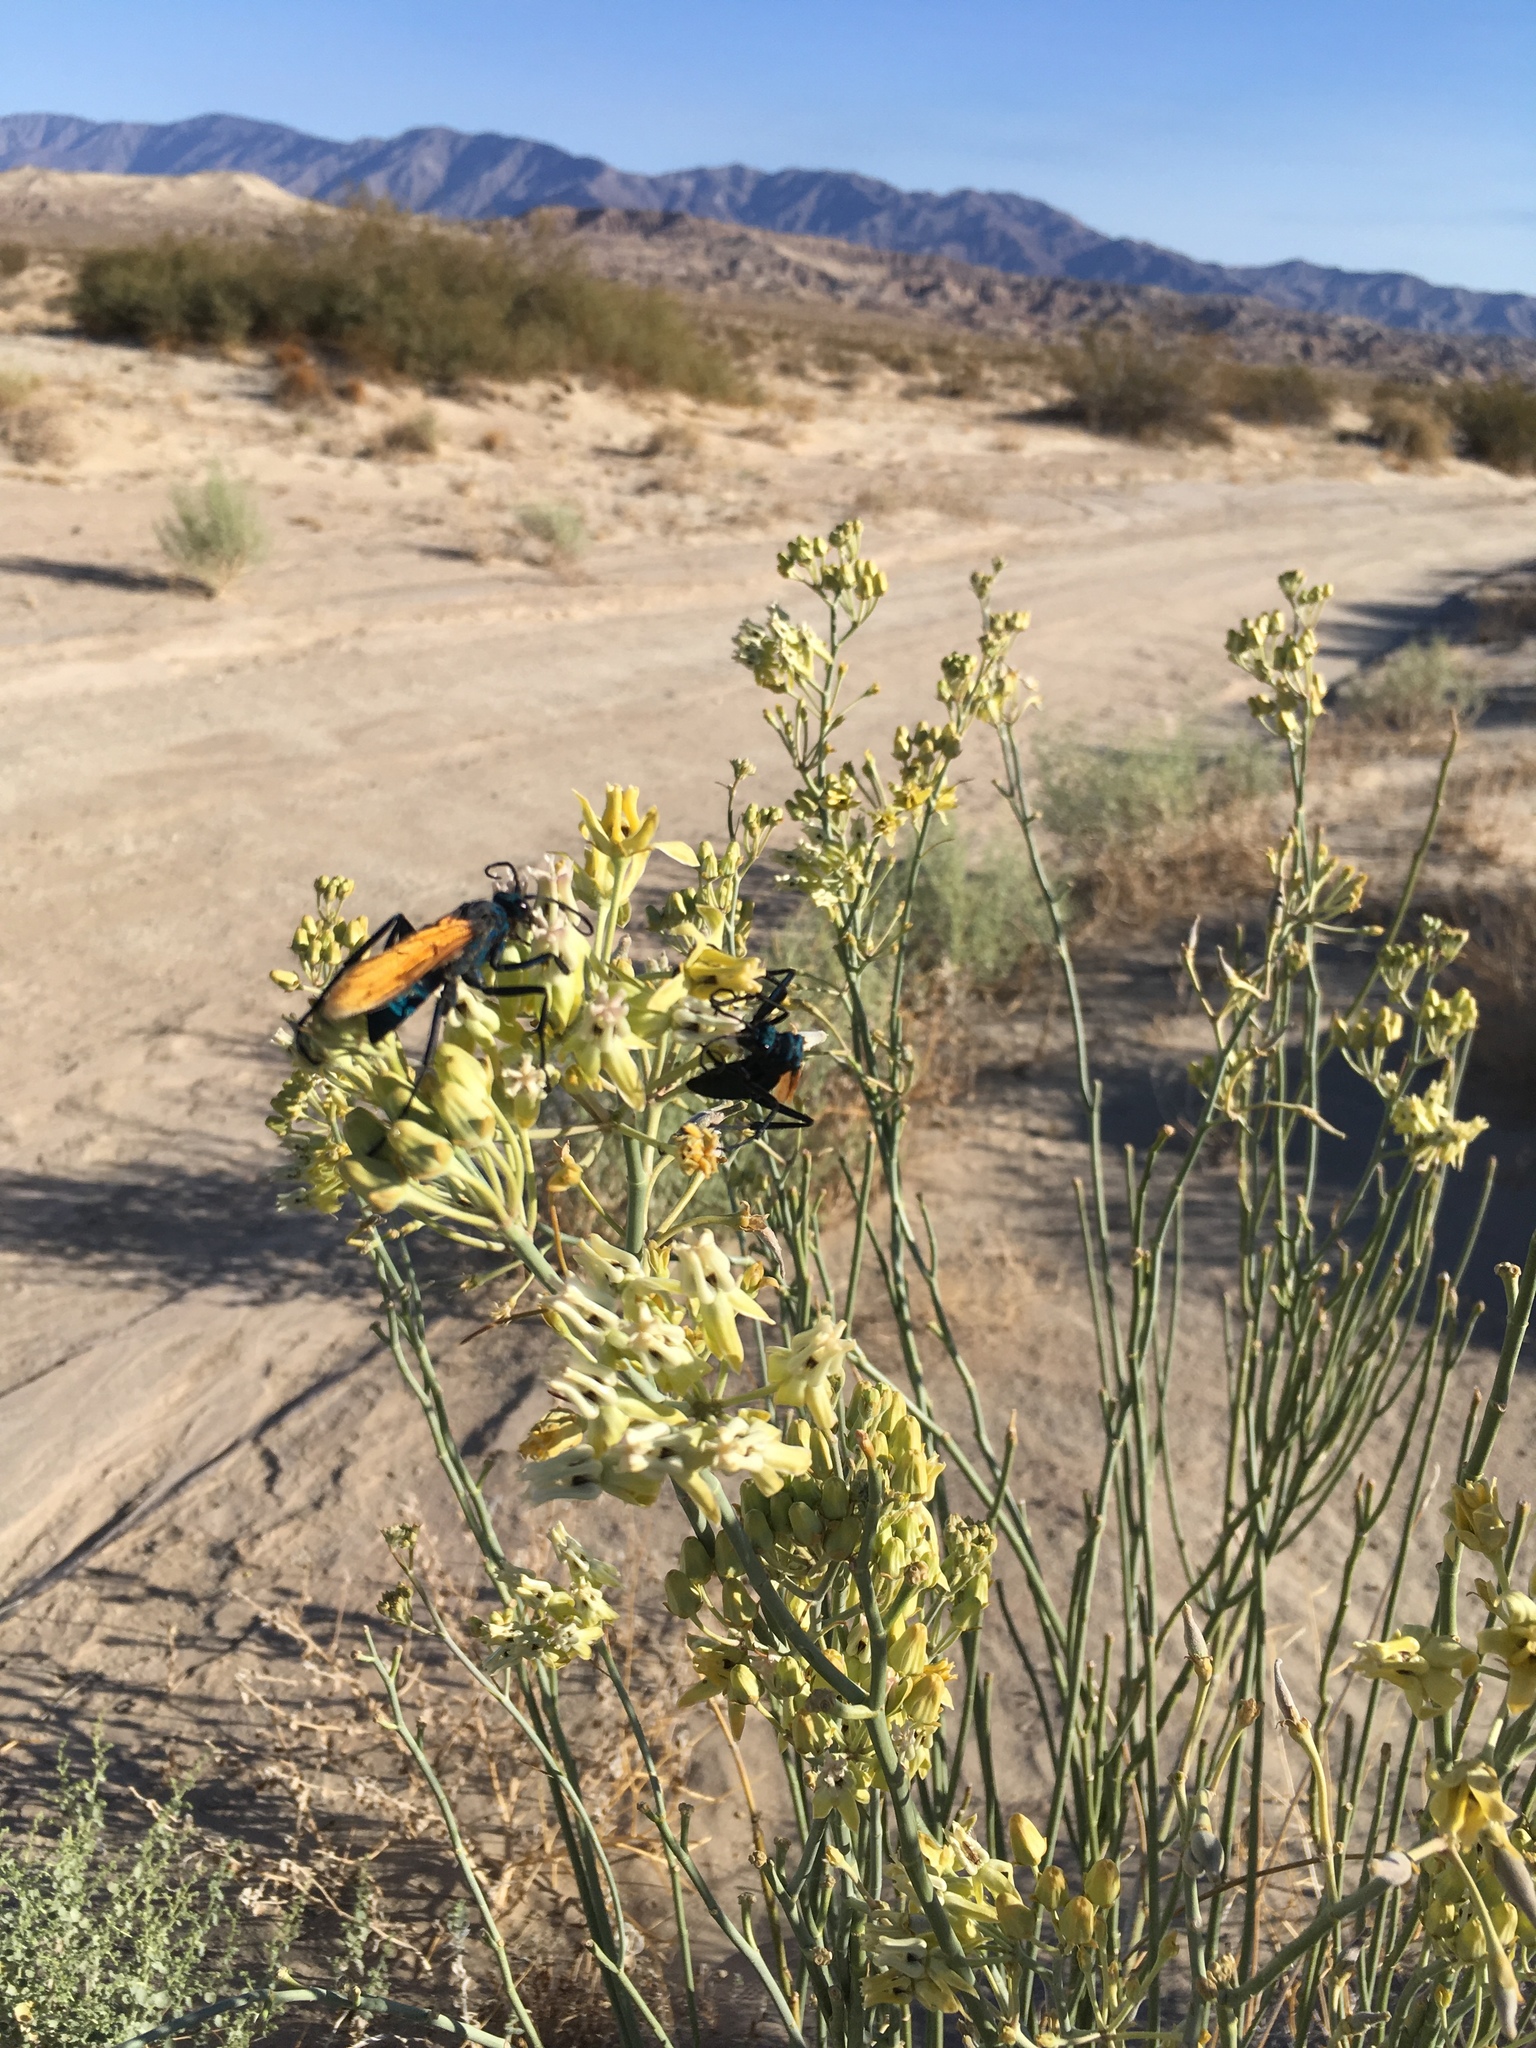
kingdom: Plantae
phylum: Tracheophyta
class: Magnoliopsida
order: Gentianales
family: Apocynaceae
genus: Asclepias
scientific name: Asclepias subulata
